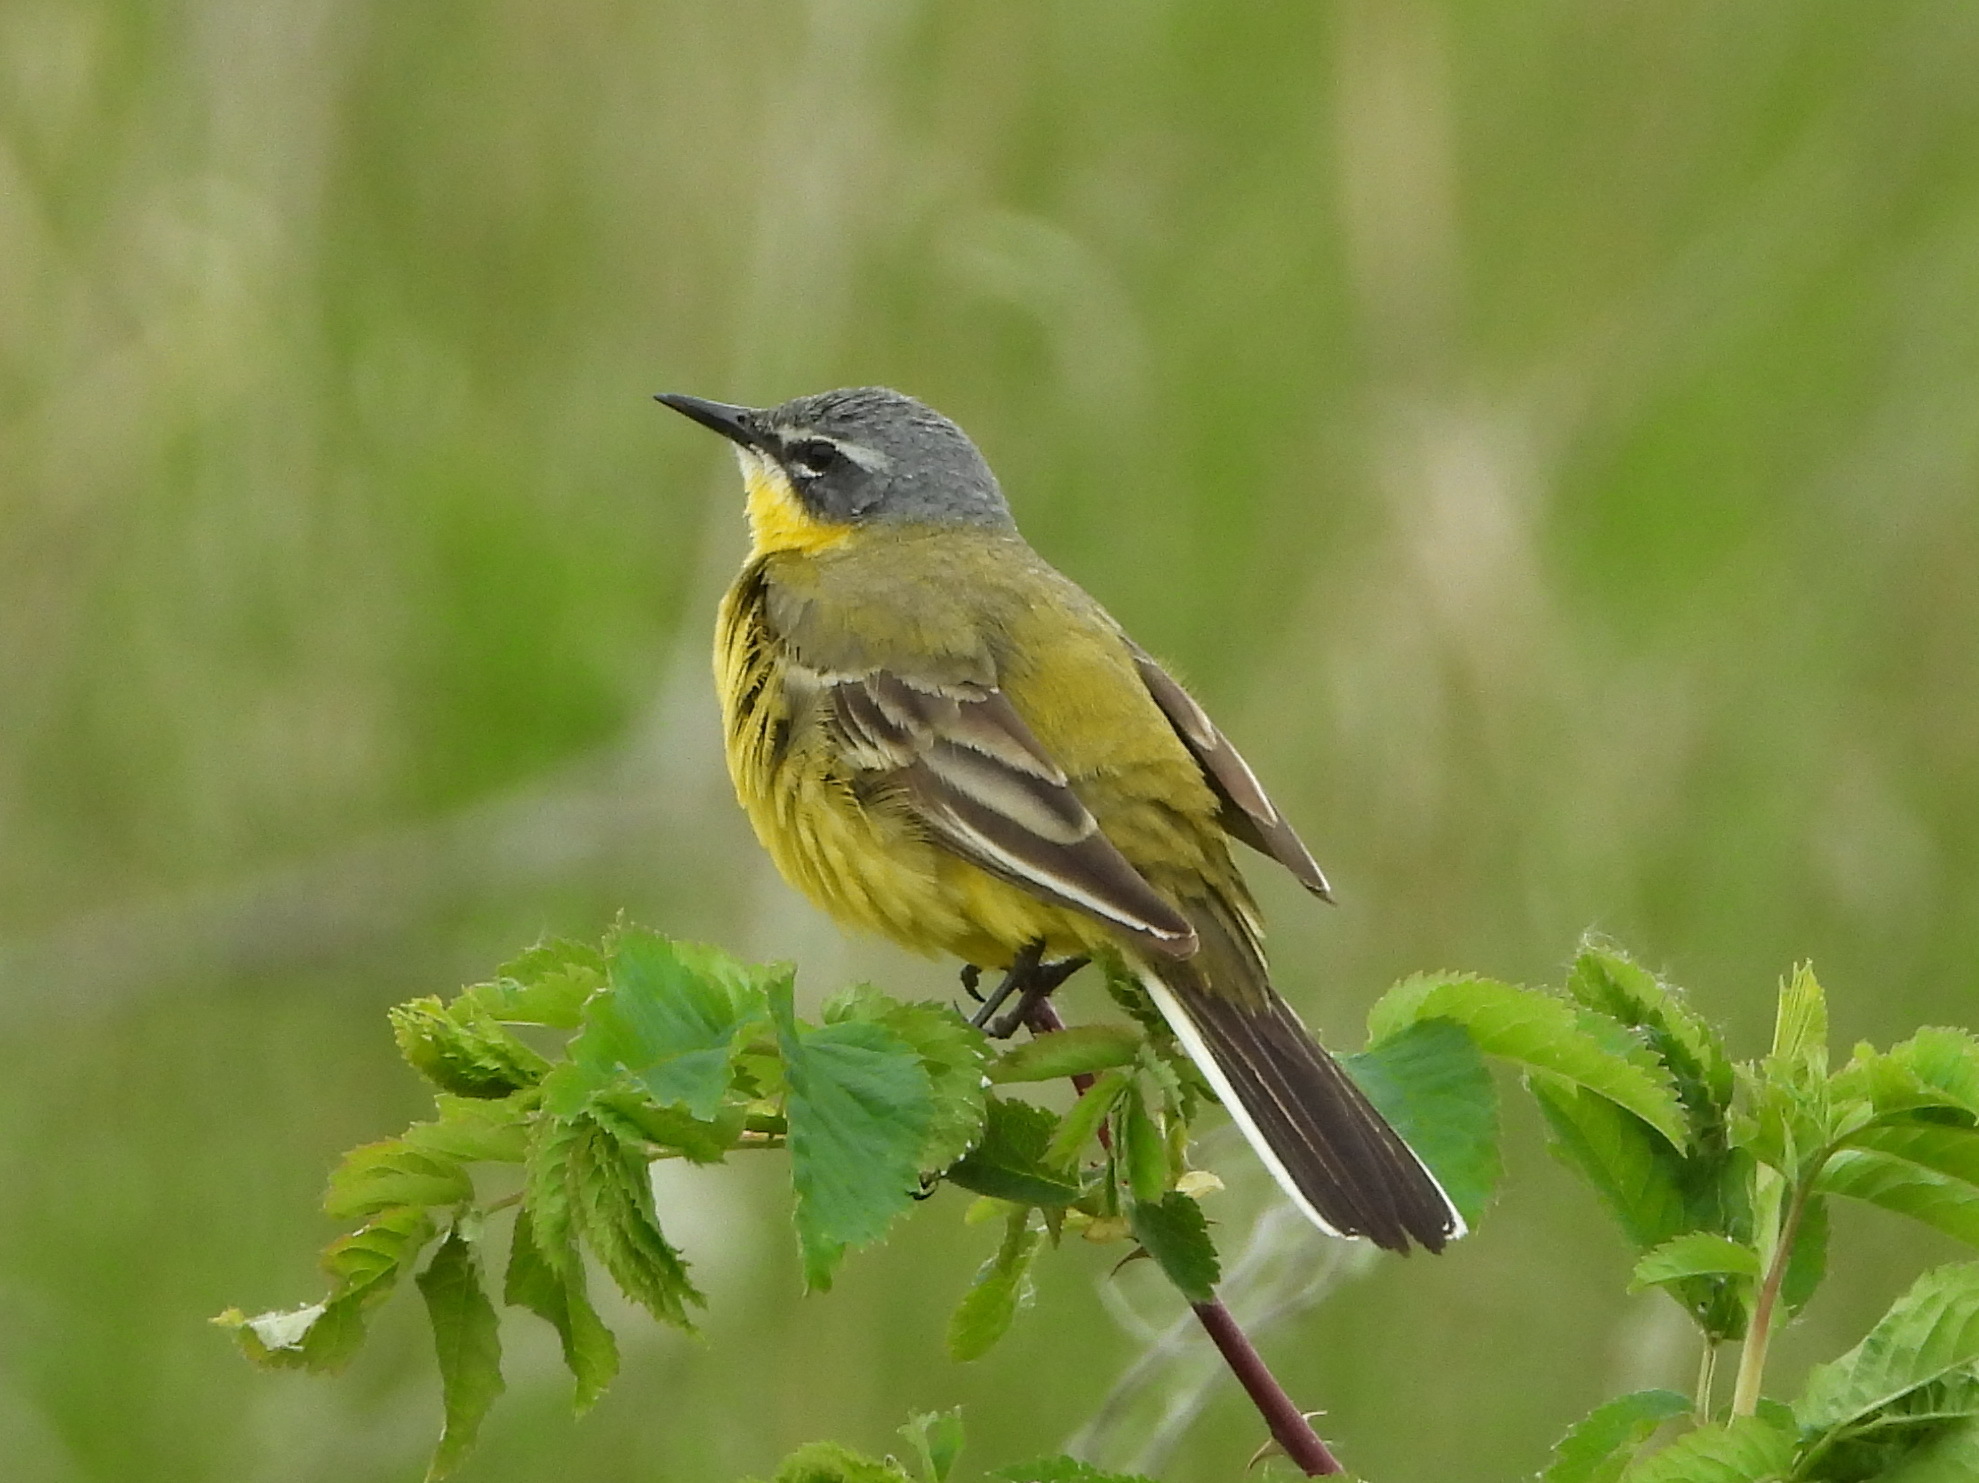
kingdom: Animalia
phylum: Chordata
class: Aves
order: Passeriformes
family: Motacillidae
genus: Motacilla
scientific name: Motacilla flava
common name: Western yellow wagtail
